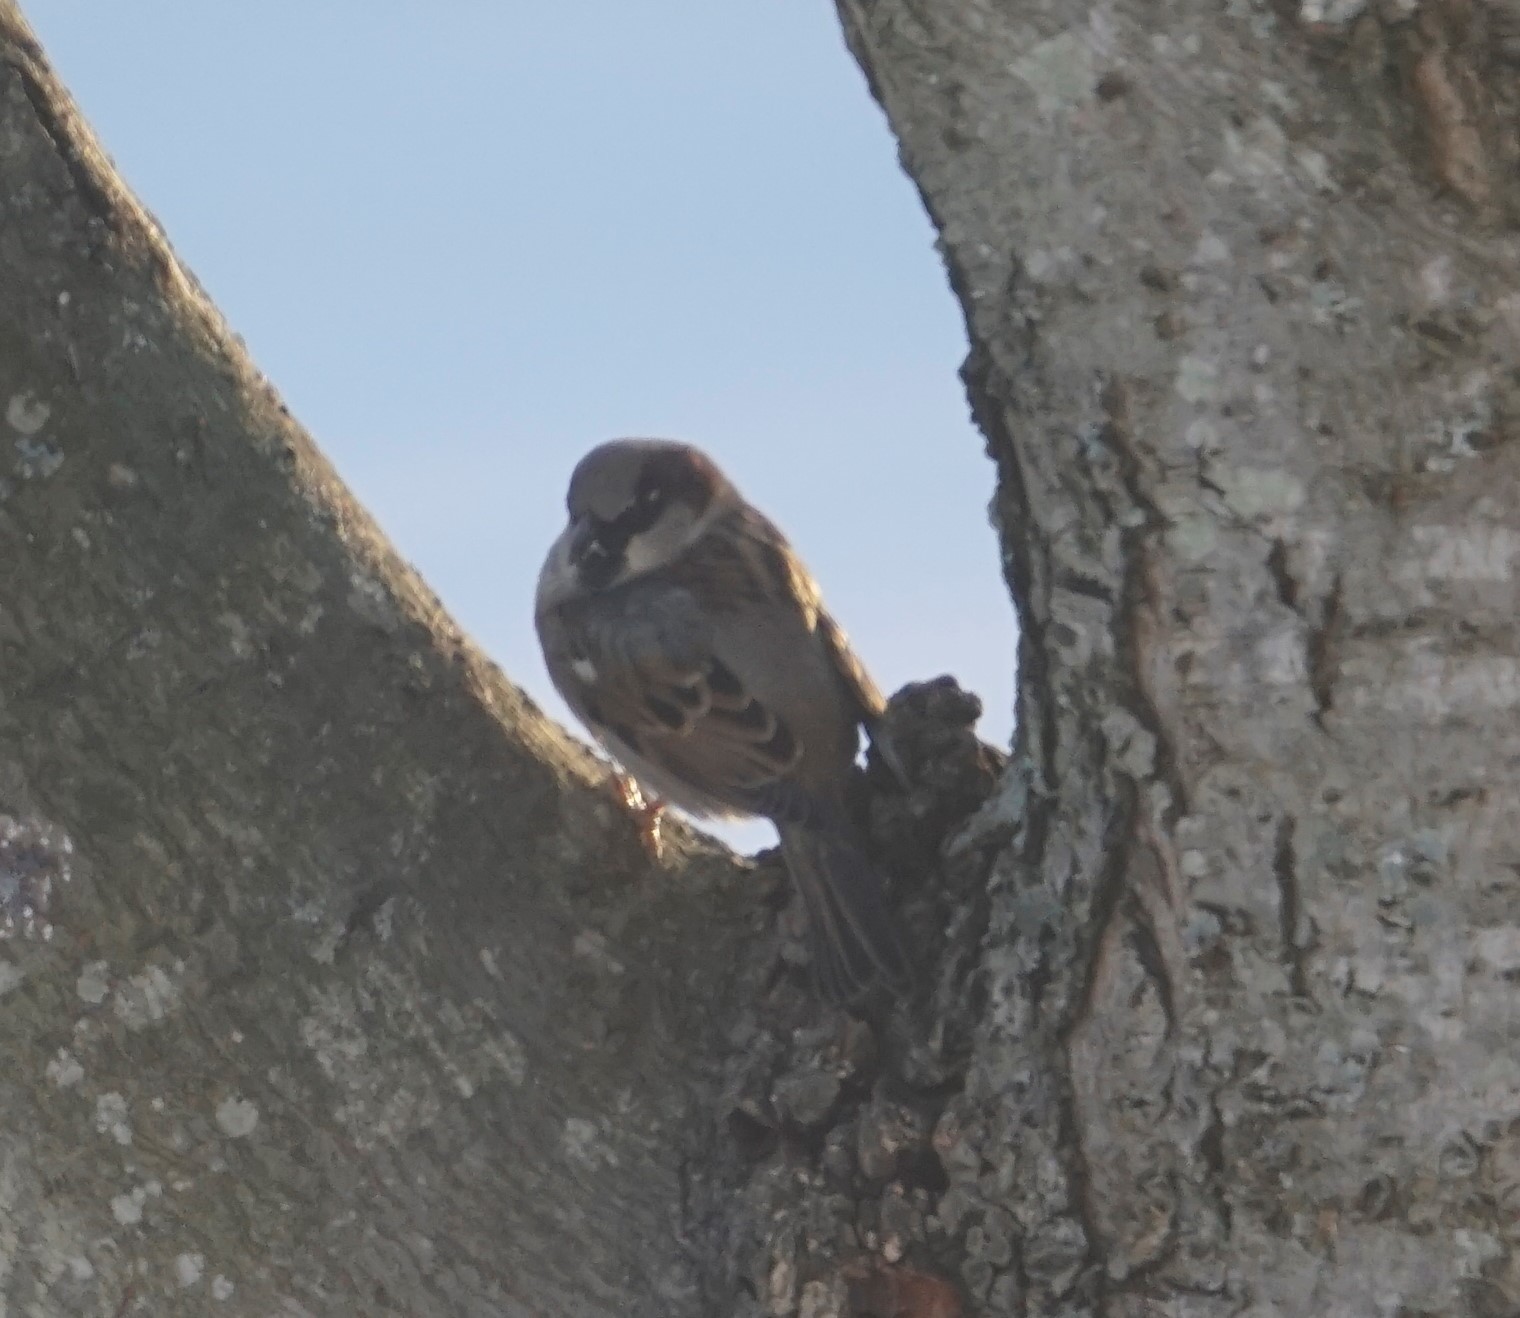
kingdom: Animalia
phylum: Chordata
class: Aves
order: Passeriformes
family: Passeridae
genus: Passer
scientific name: Passer domesticus
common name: House sparrow
